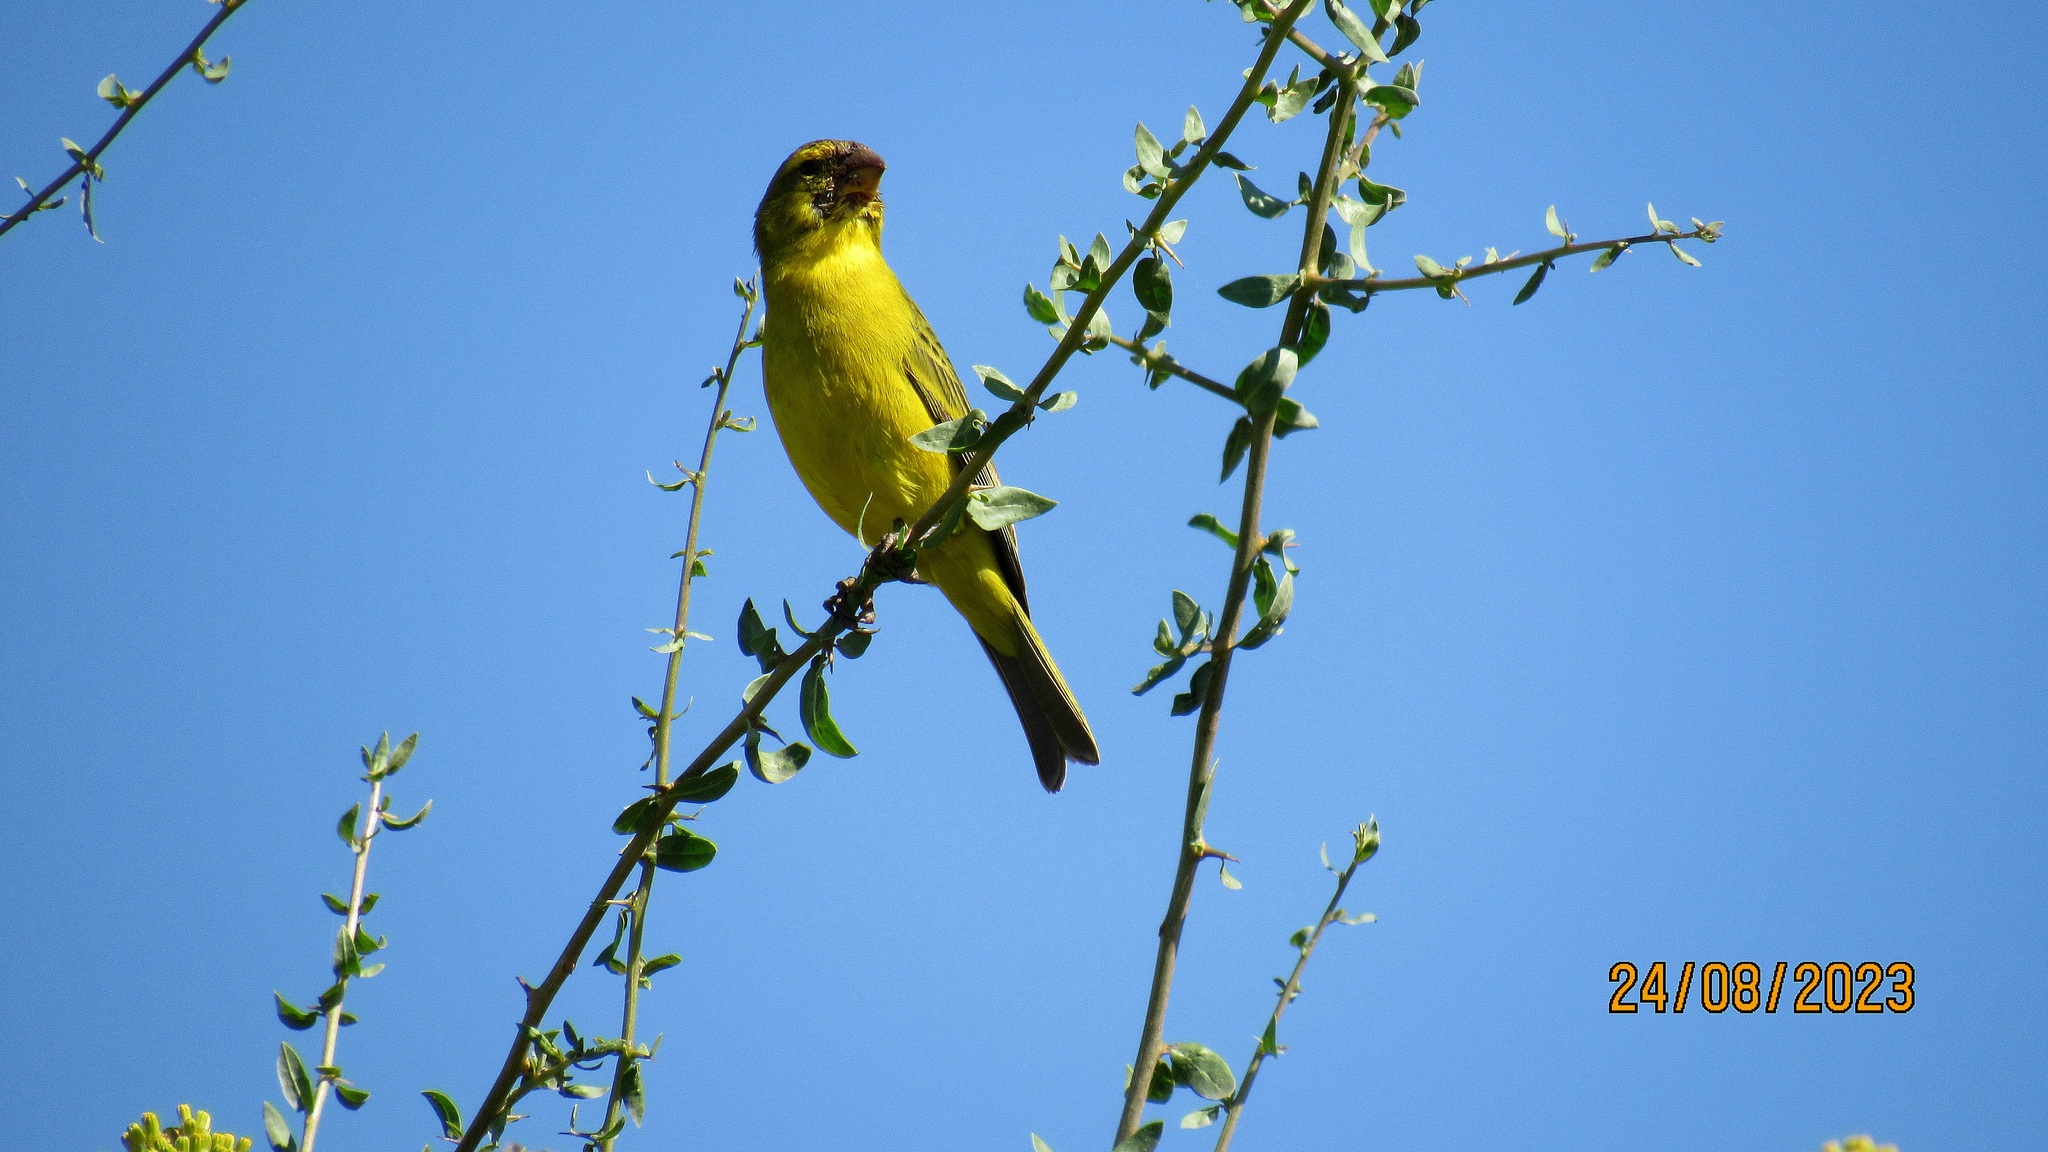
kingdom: Animalia
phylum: Chordata
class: Aves
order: Passeriformes
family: Fringillidae
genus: Crithagra
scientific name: Crithagra sulphurata
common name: Brimstone canary
